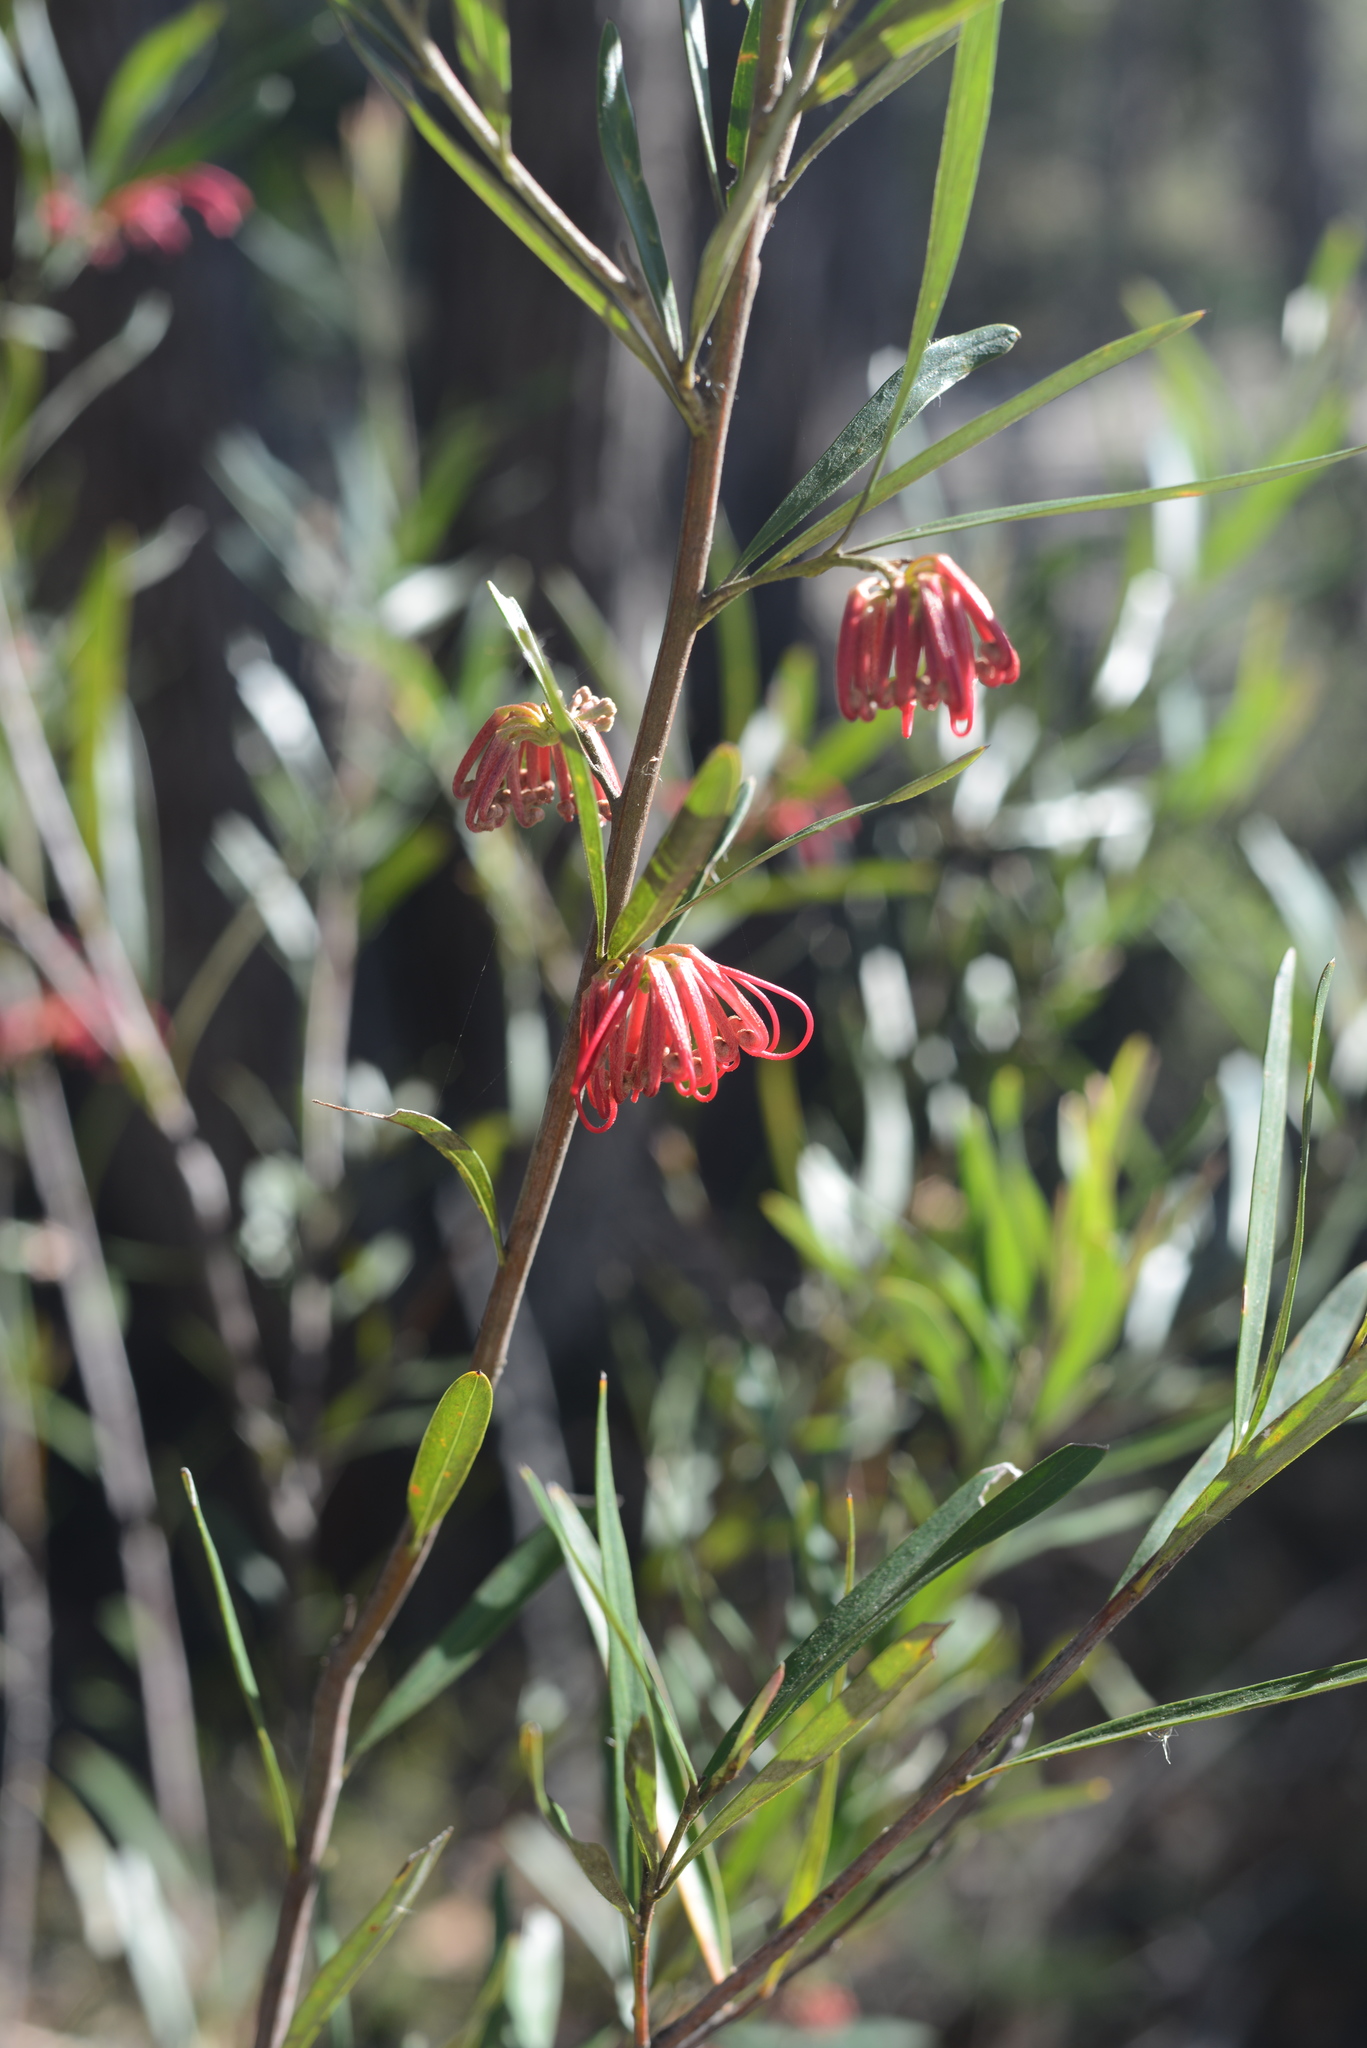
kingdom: Plantae
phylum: Tracheophyta
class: Magnoliopsida
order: Proteales
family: Proteaceae
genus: Grevillea
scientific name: Grevillea speciosa
